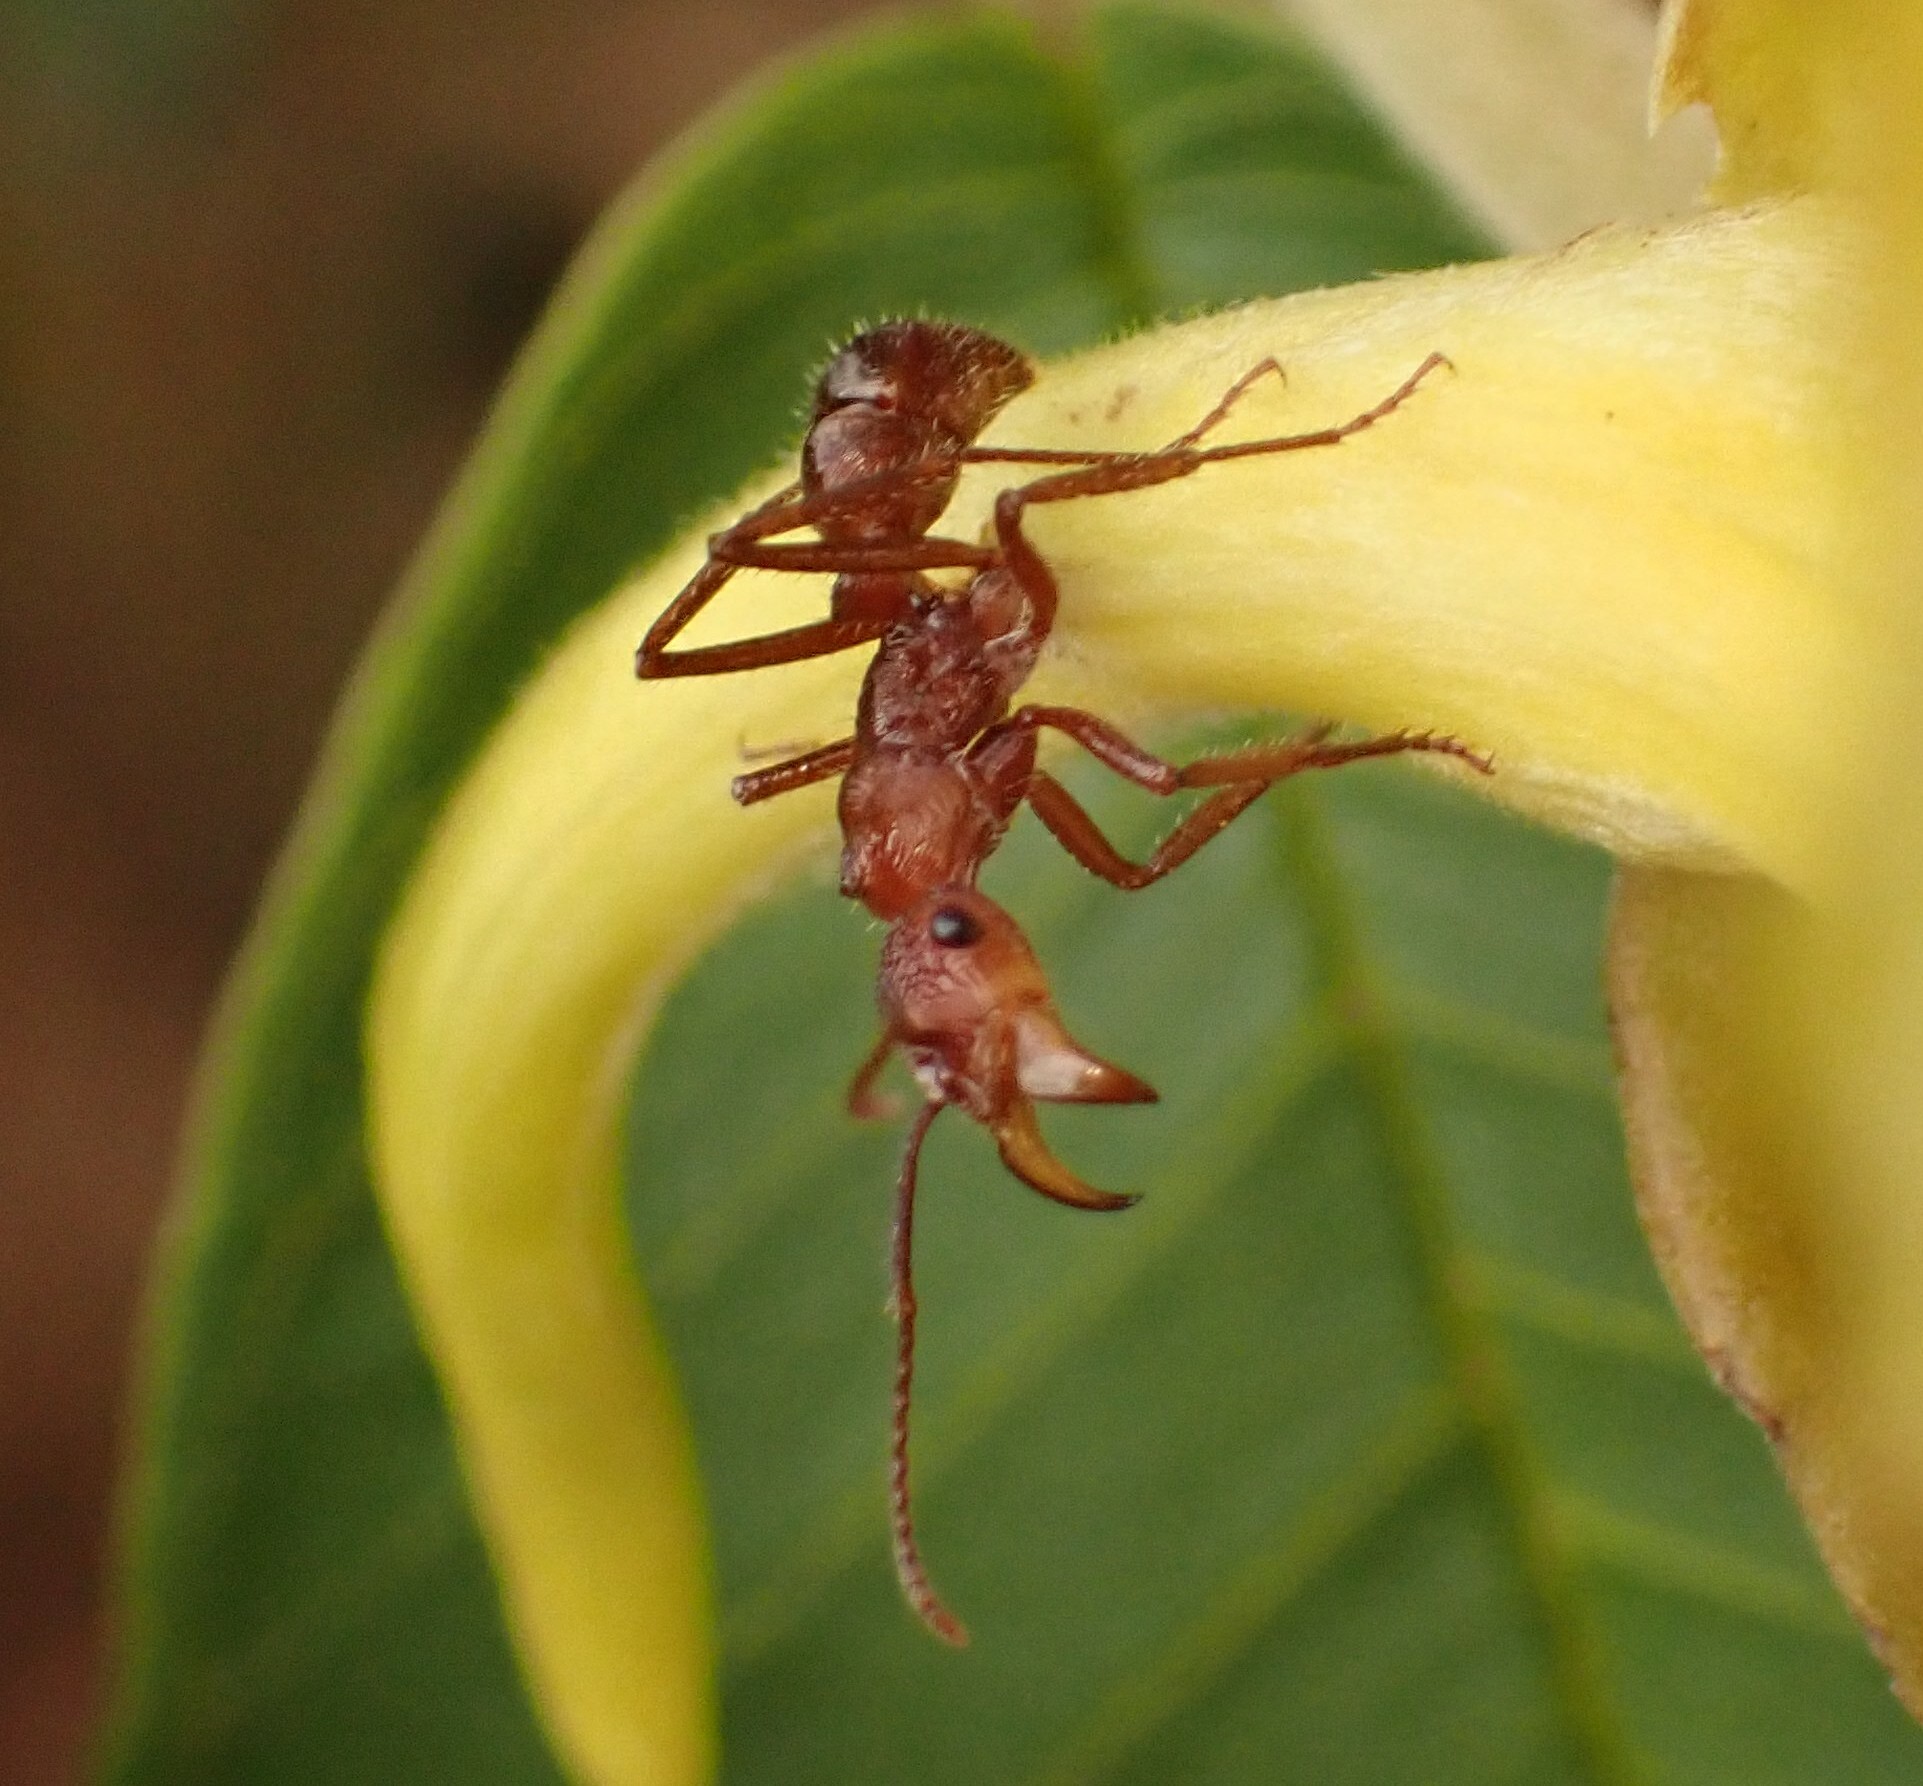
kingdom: Animalia
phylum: Arthropoda
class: Insecta
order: Hymenoptera
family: Formicidae
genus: Ectatomma
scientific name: Ectatomma tuberculatum
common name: Ant
